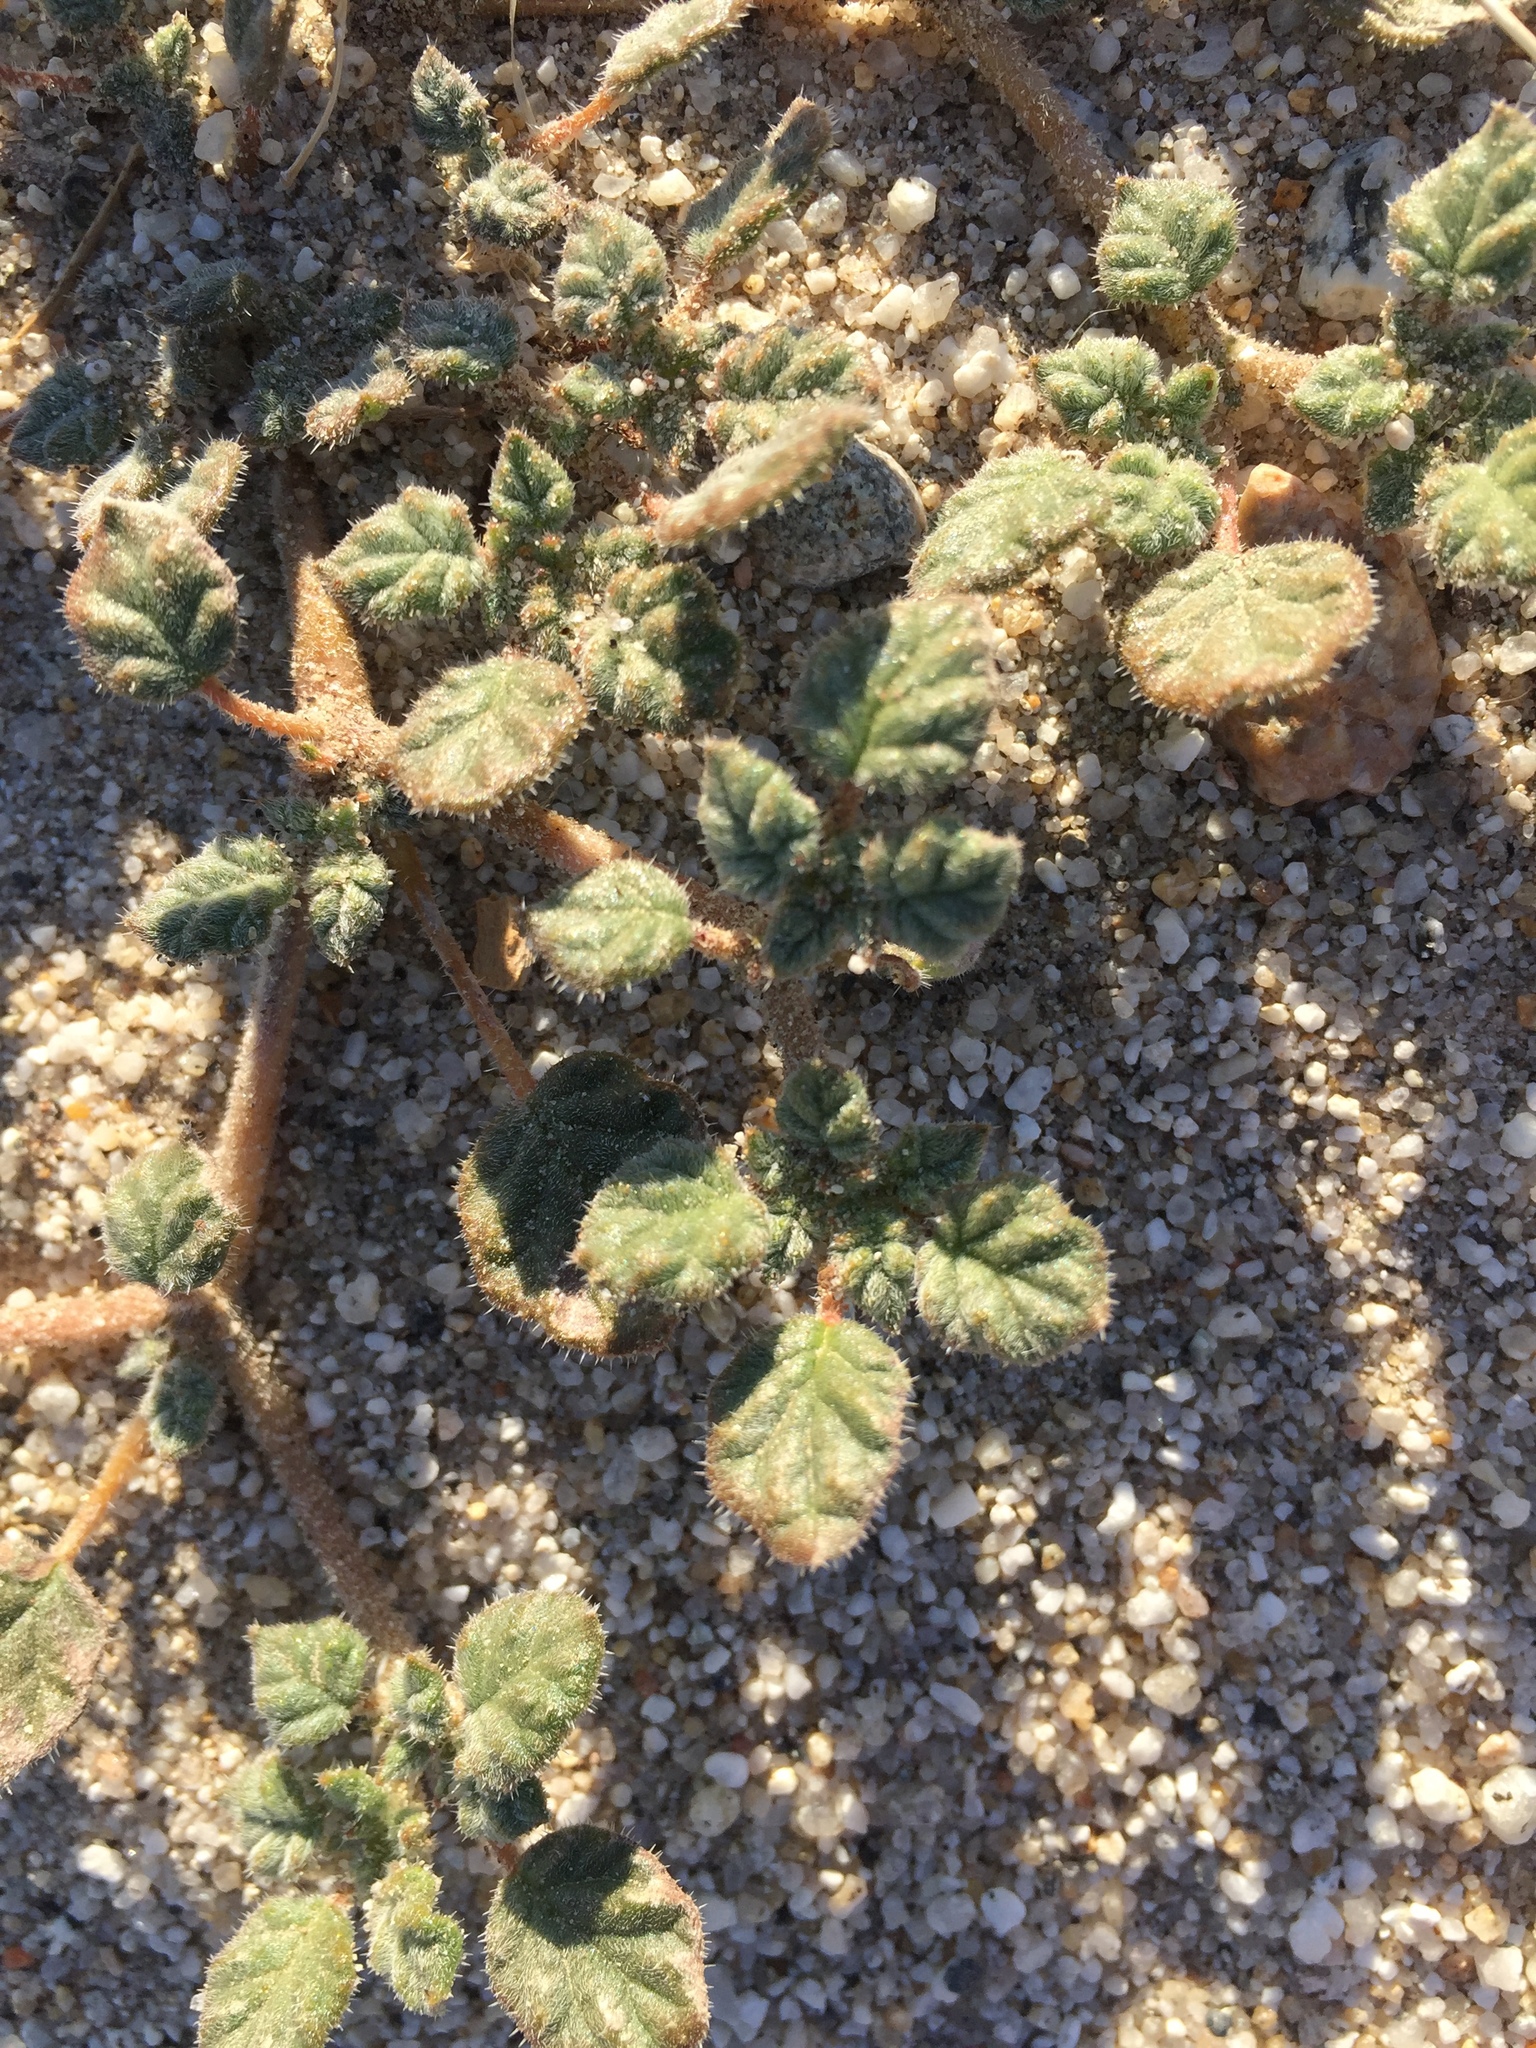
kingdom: Plantae
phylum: Tracheophyta
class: Magnoliopsida
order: Boraginales
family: Ehretiaceae
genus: Tiquilia
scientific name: Tiquilia palmeri
